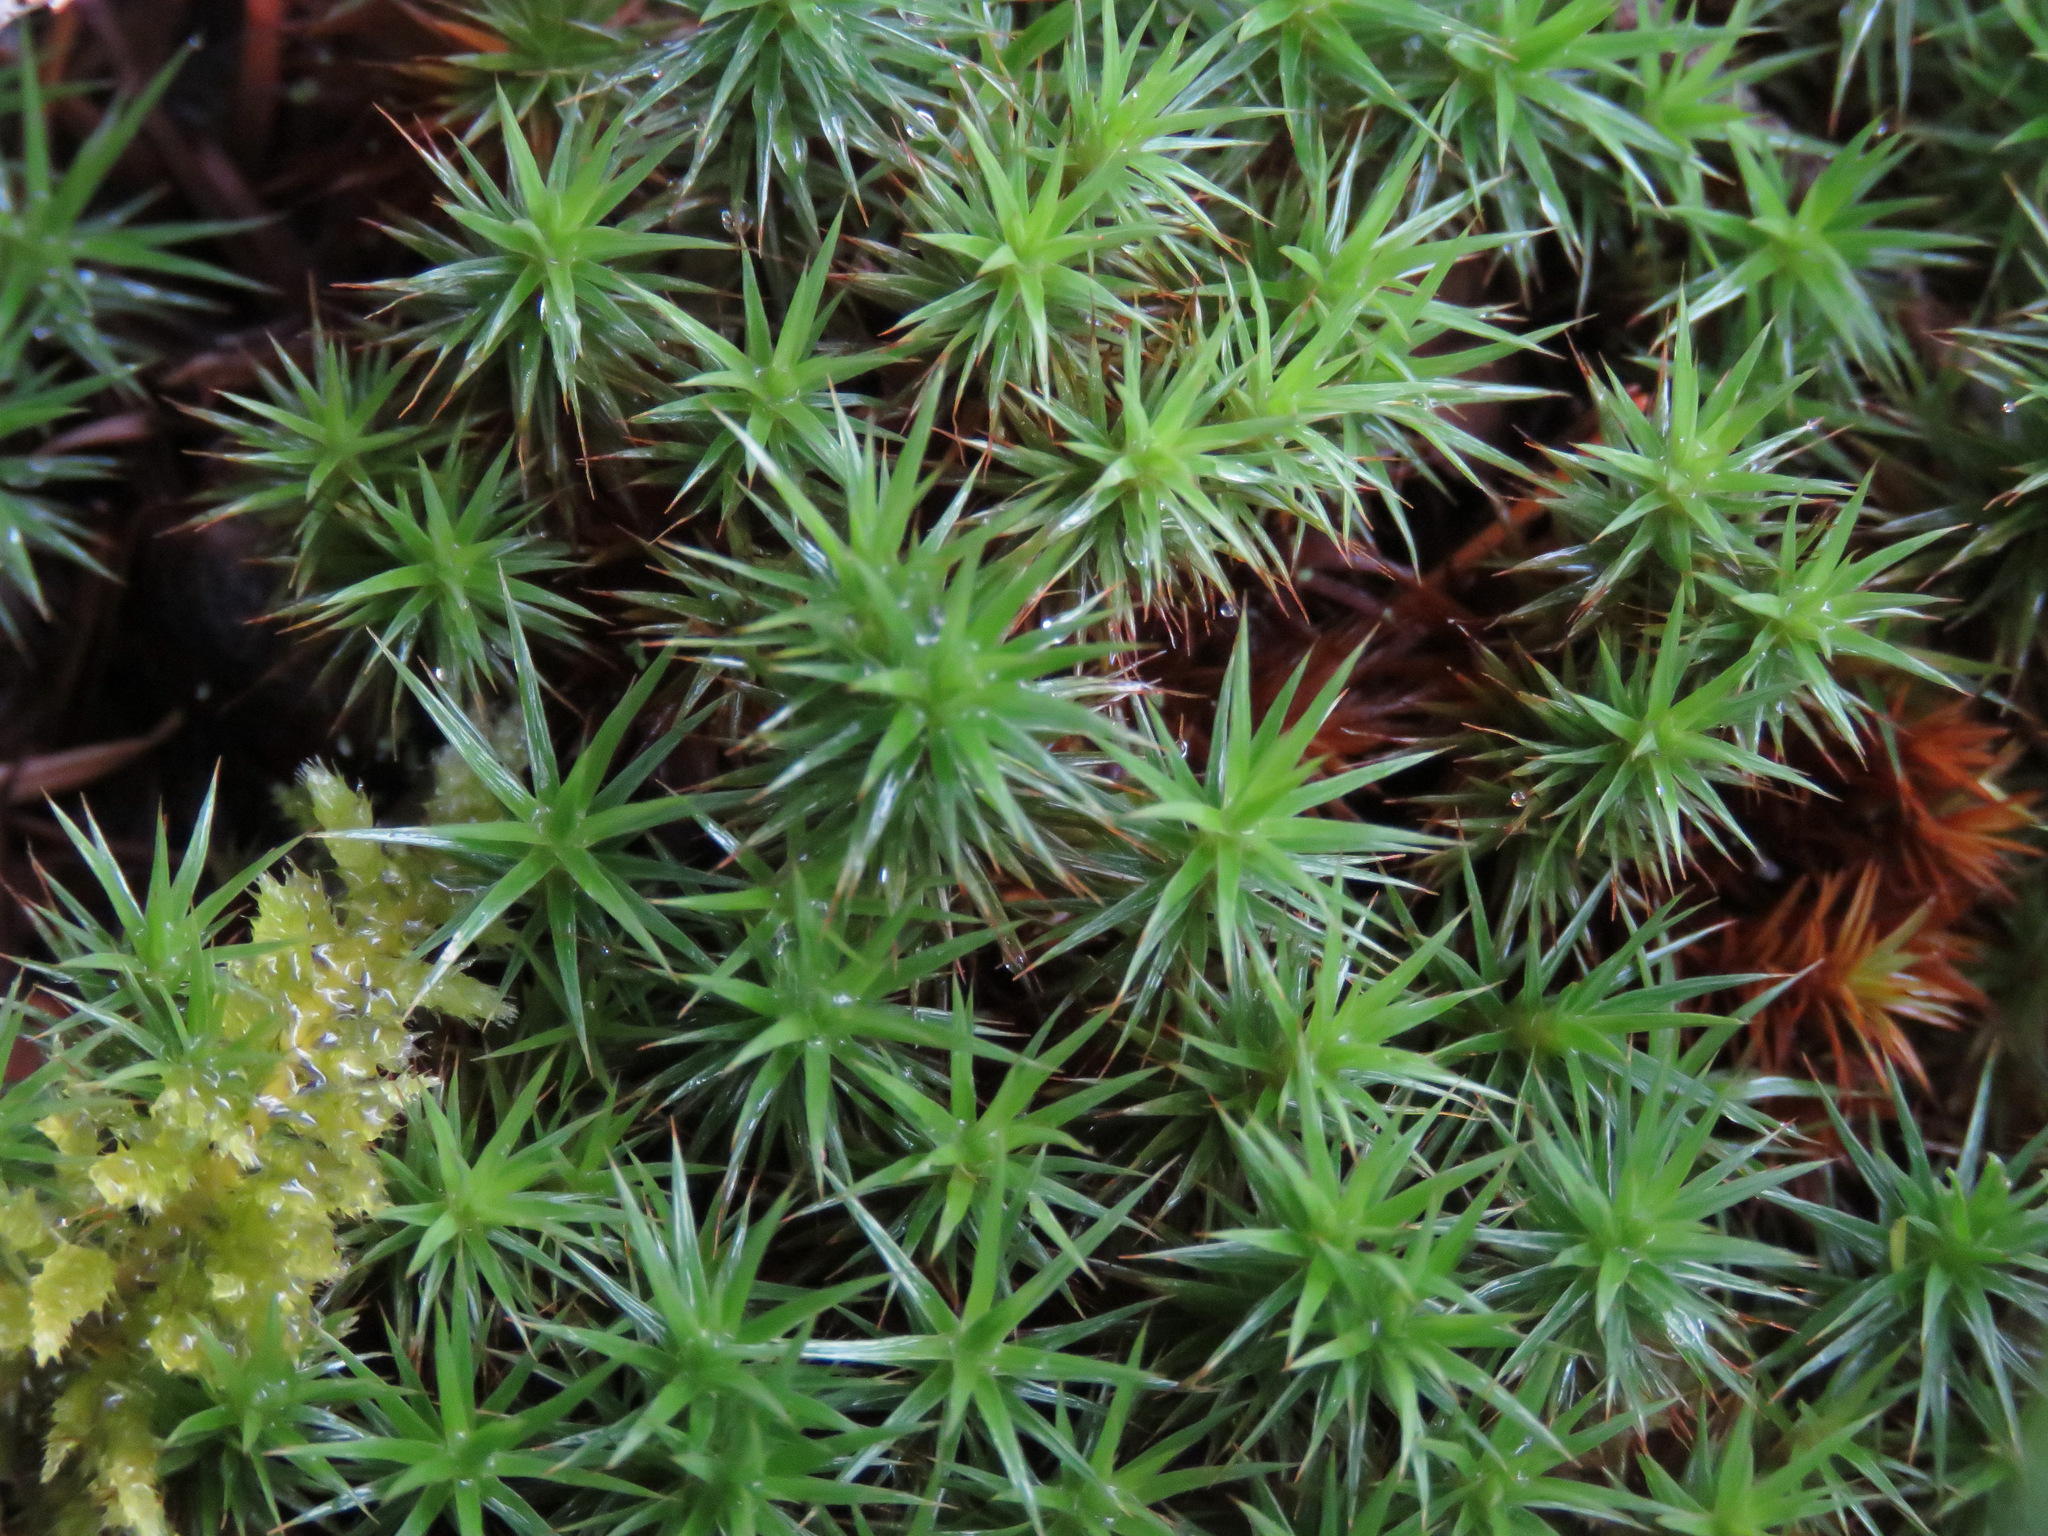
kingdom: Plantae
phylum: Bryophyta
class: Polytrichopsida
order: Polytrichales
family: Polytrichaceae
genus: Polytrichum
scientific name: Polytrichum juniperinum
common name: Juniper haircap moss
